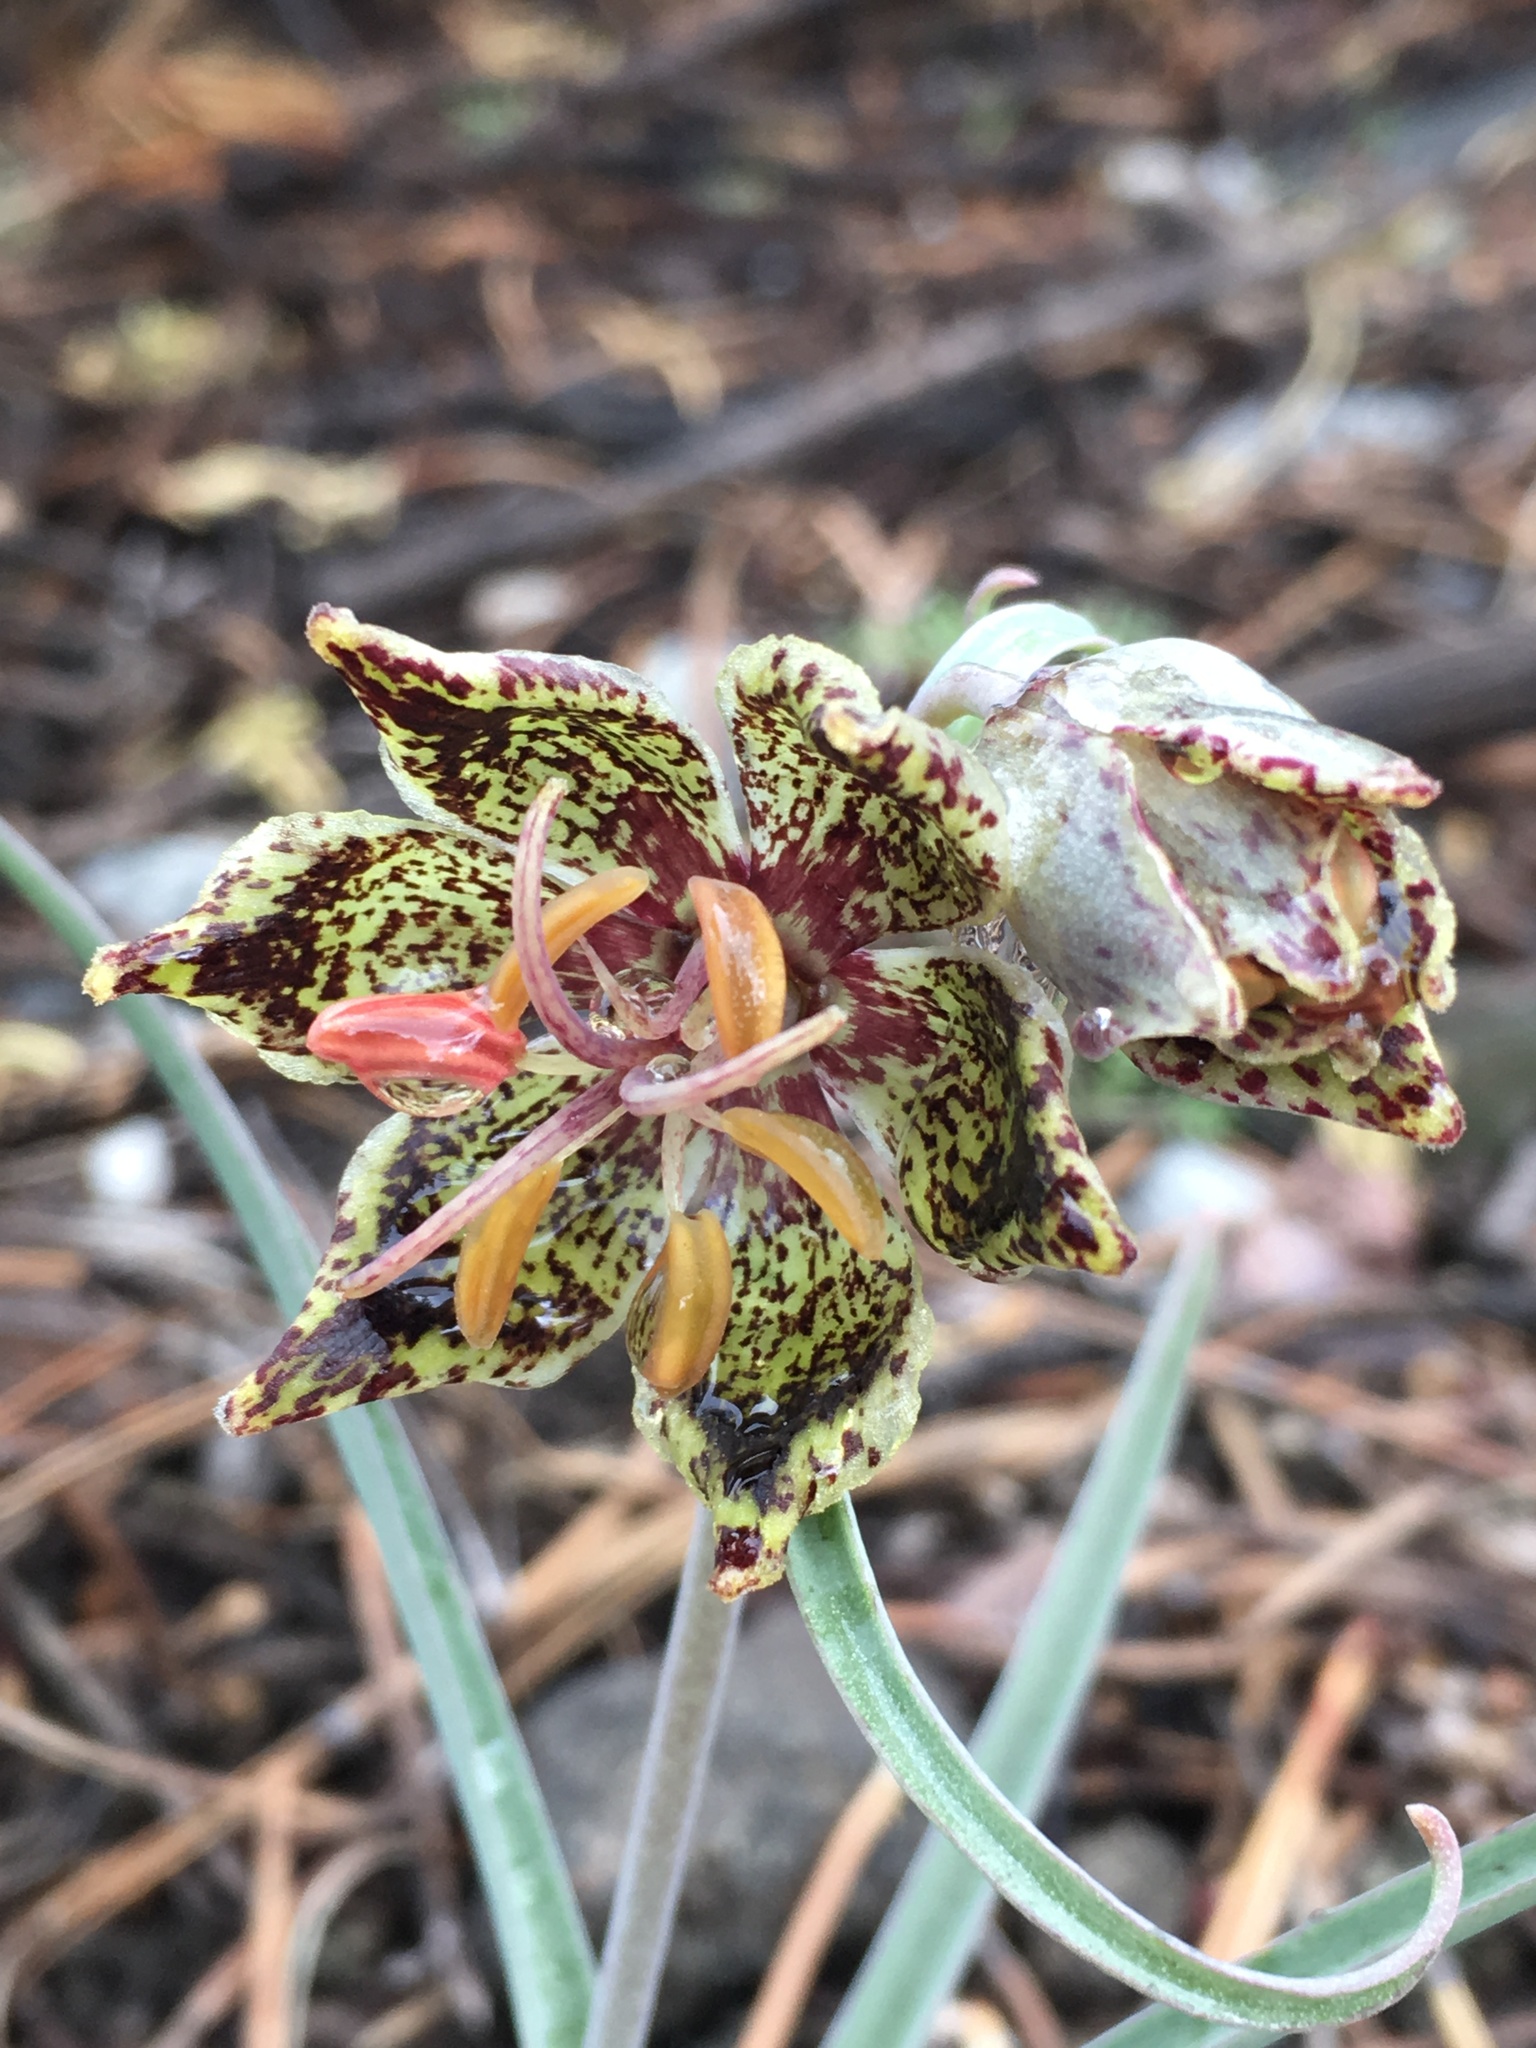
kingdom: Plantae
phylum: Tracheophyta
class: Liliopsida
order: Liliales
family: Liliaceae
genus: Fritillaria
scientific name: Fritillaria pinetorum
